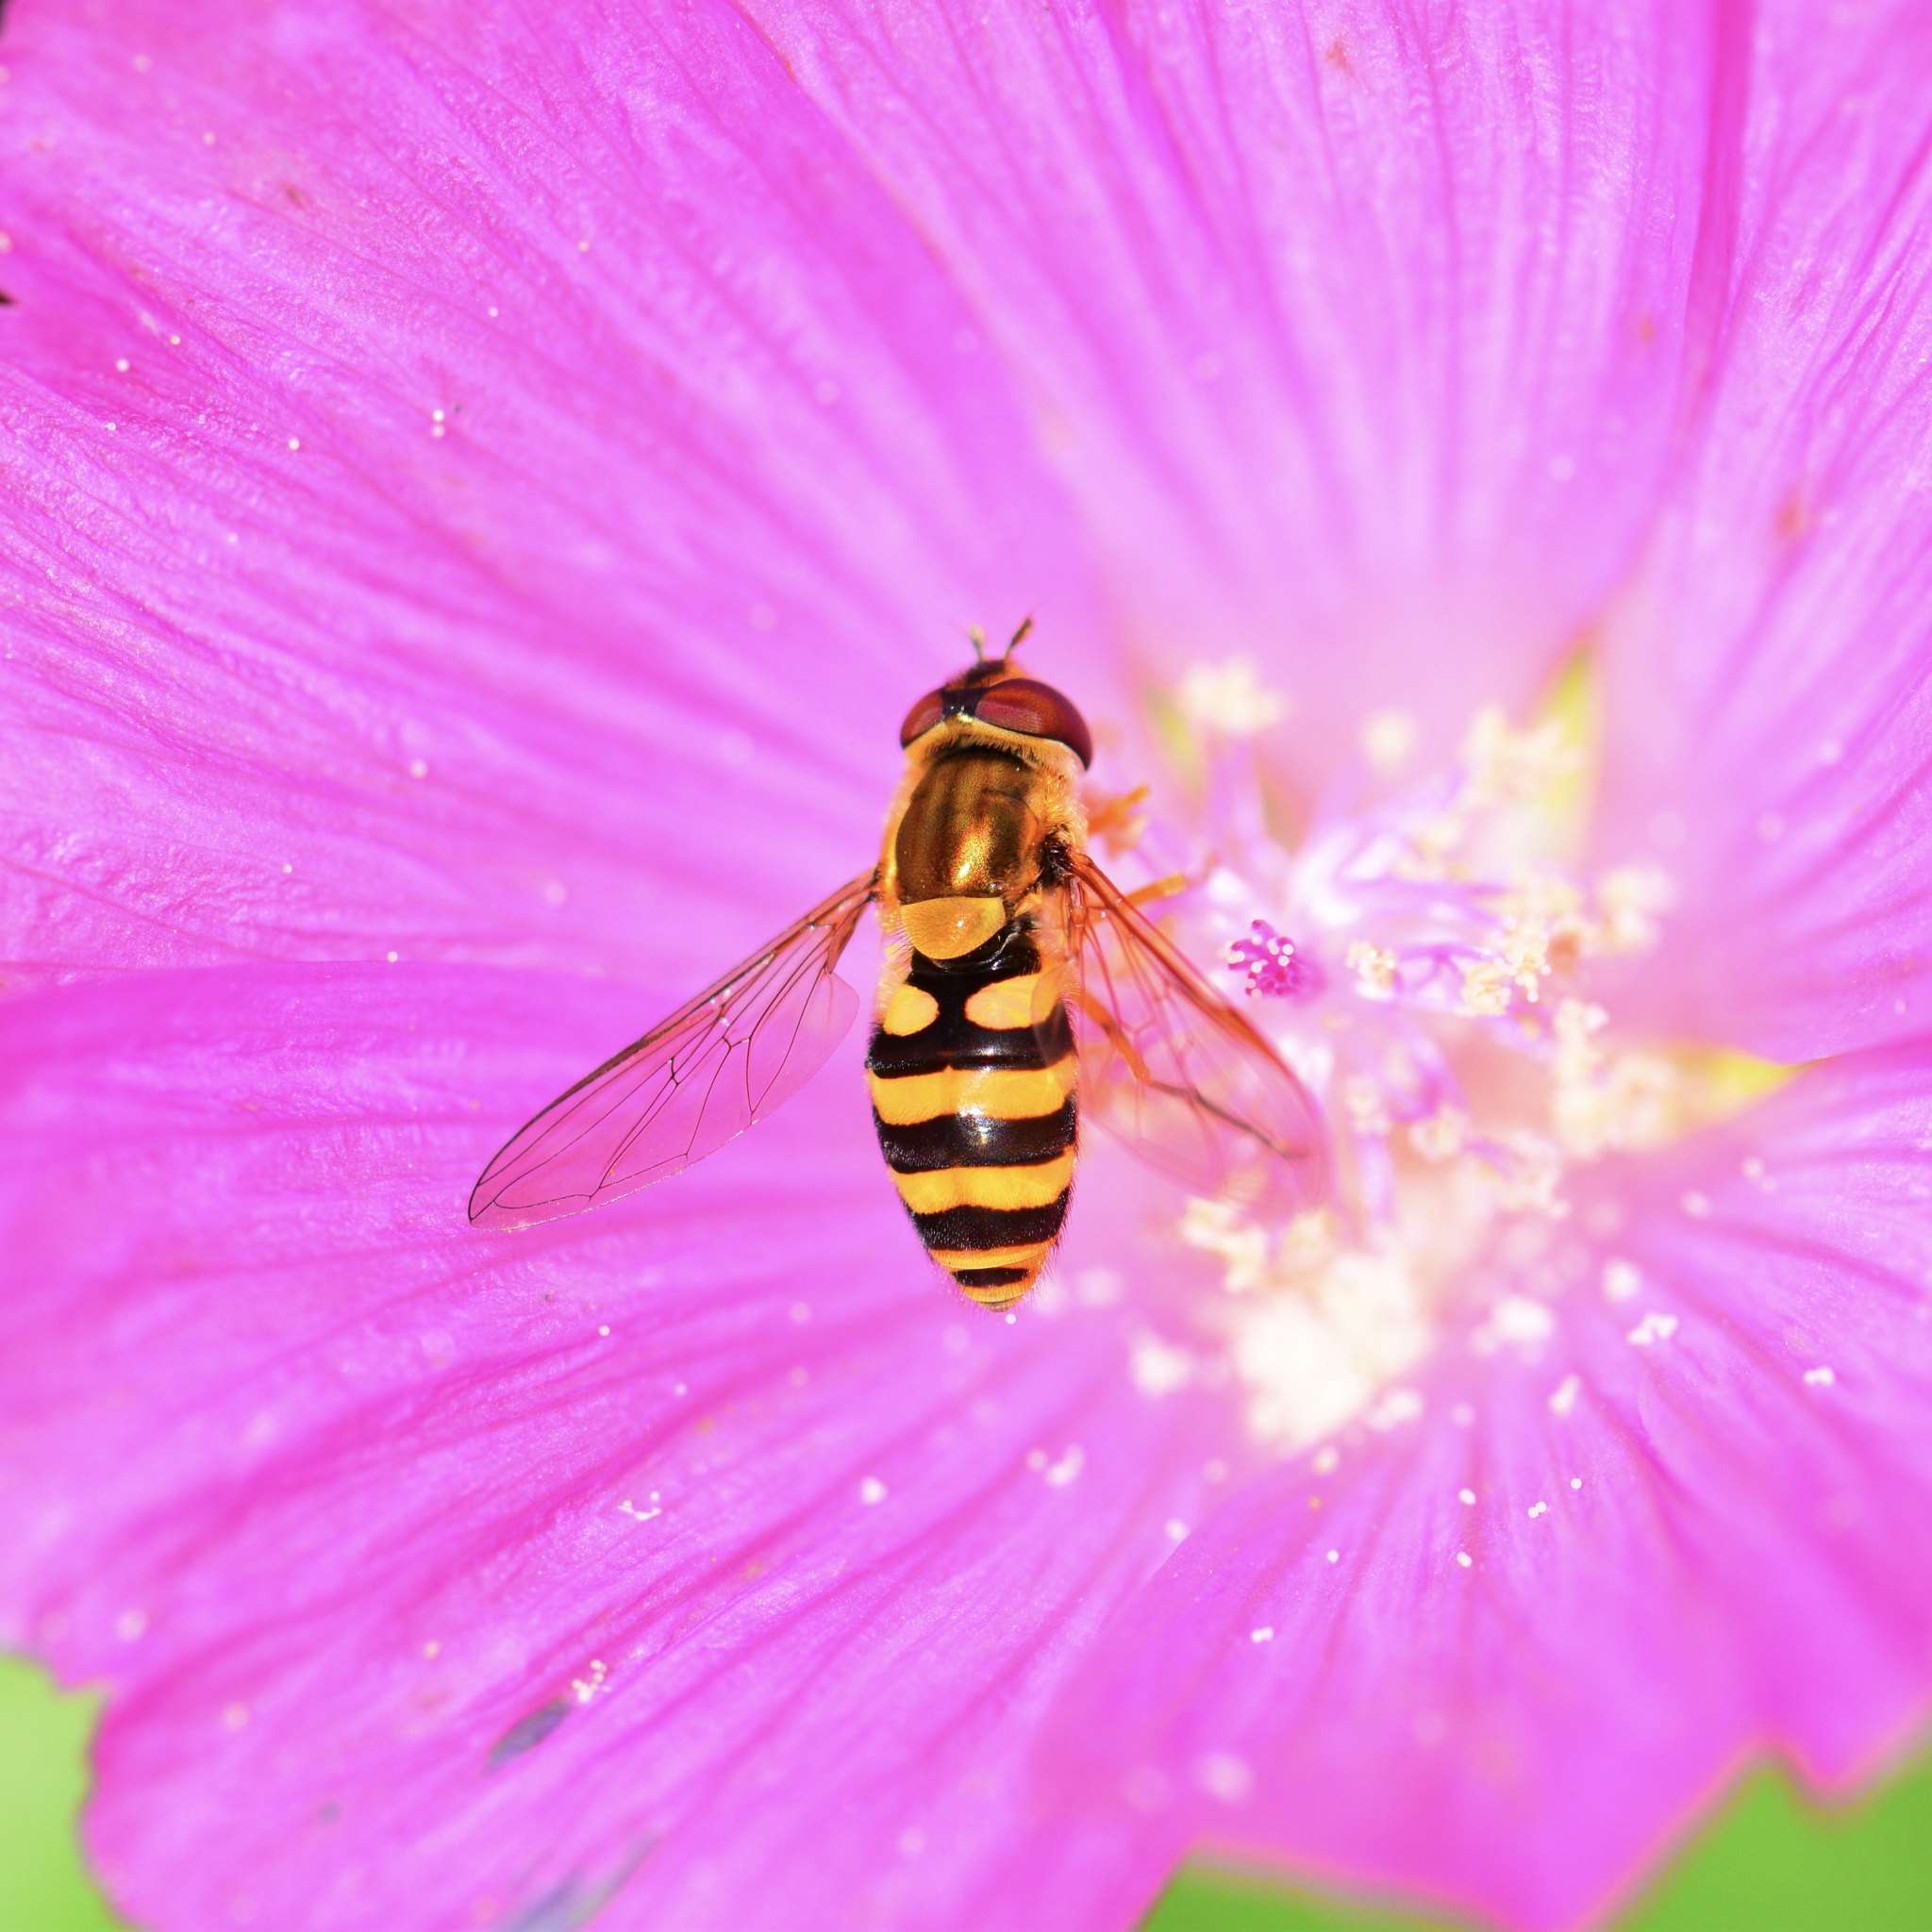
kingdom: Animalia
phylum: Arthropoda
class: Insecta
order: Diptera
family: Syrphidae
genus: Syrphus
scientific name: Syrphus ribesii
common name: Common flower fly
